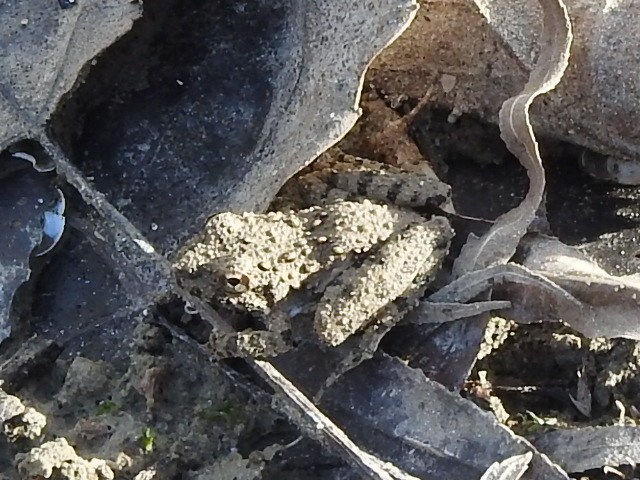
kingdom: Animalia
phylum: Chordata
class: Amphibia
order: Anura
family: Hylidae
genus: Acris
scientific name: Acris blanchardi
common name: Blanchard's cricket frog
